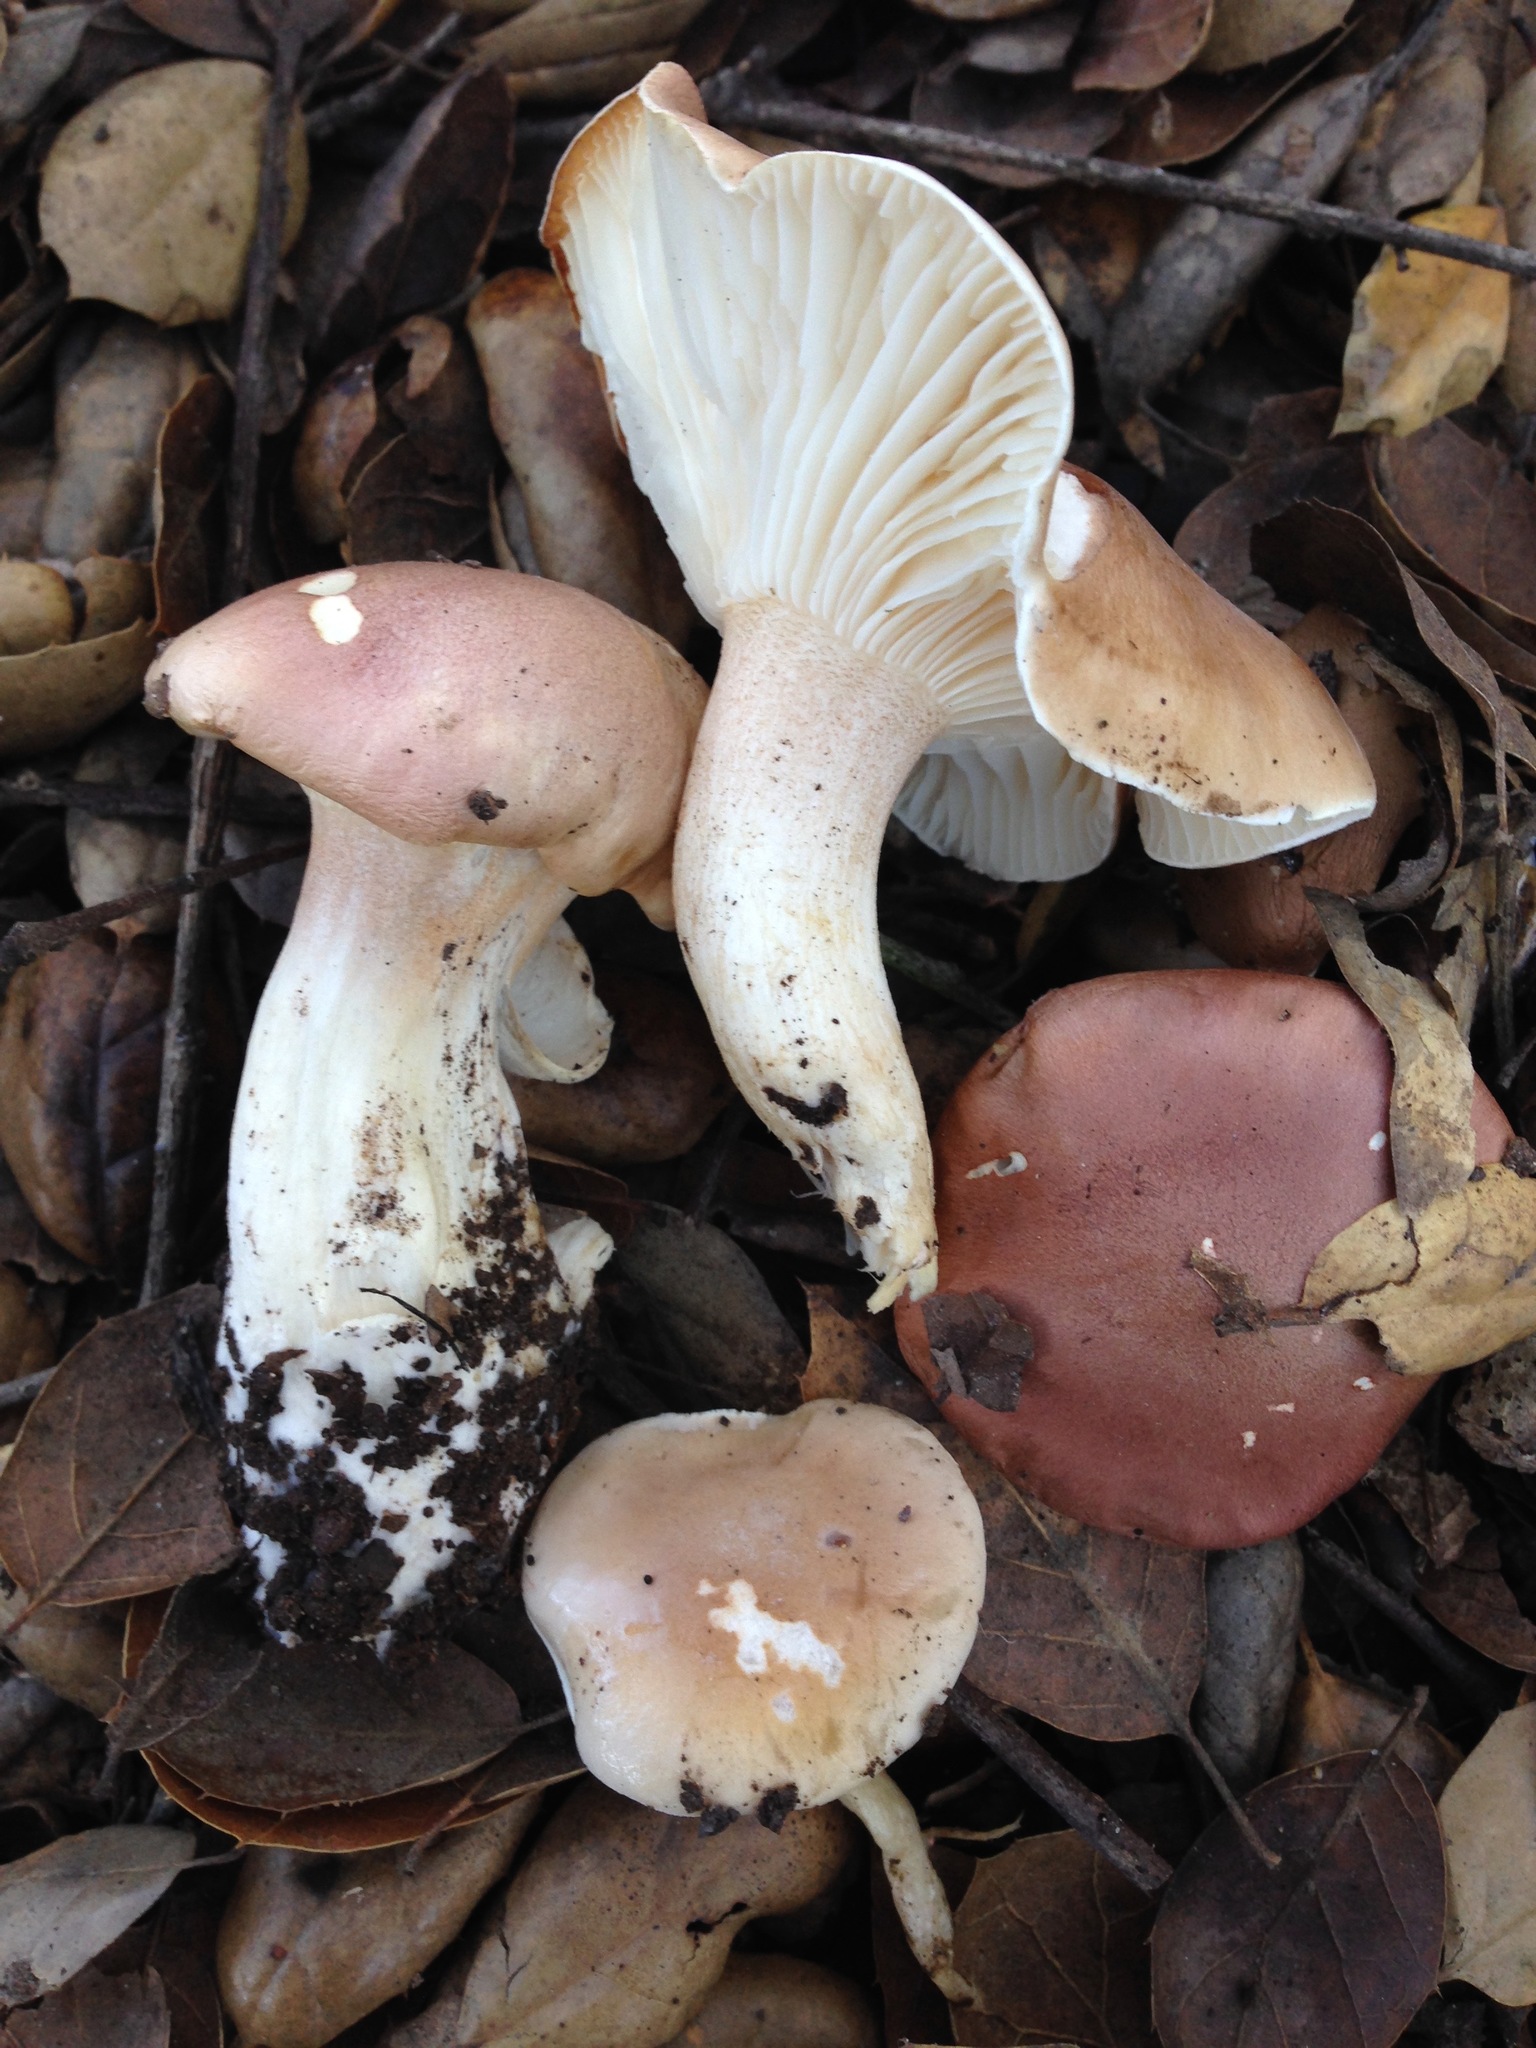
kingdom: Fungi
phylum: Basidiomycota
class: Agaricomycetes
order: Agaricales
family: Hygrophoraceae
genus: Hygrophorus
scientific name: Hygrophorus roseobrunneus
